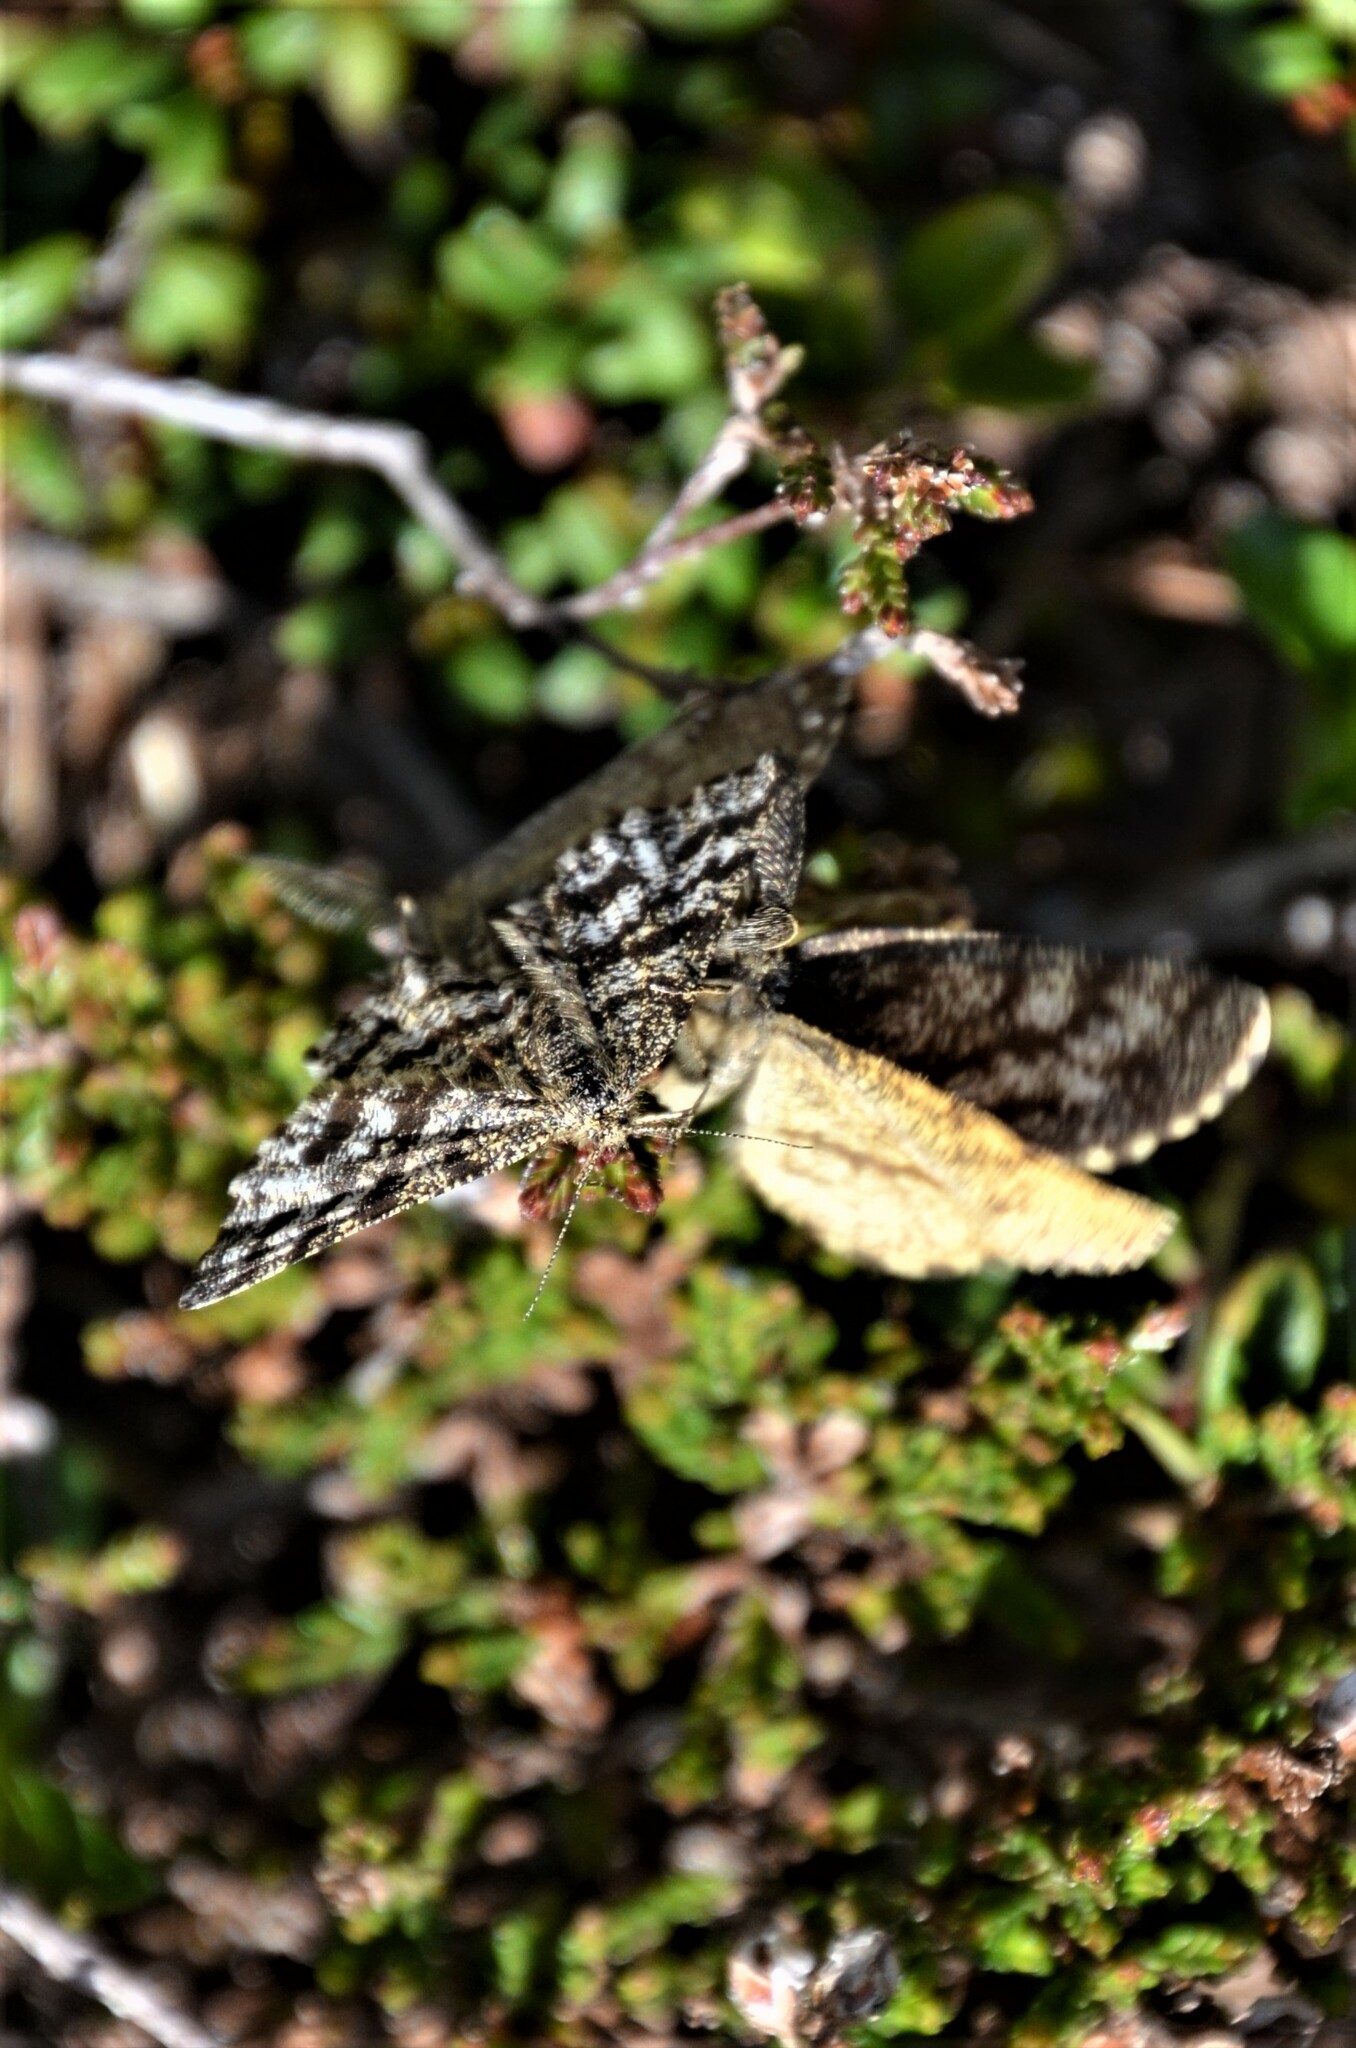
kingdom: Animalia
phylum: Arthropoda
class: Insecta
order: Lepidoptera
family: Geometridae
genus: Ematurga
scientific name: Ematurga atomaria
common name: Common heath
